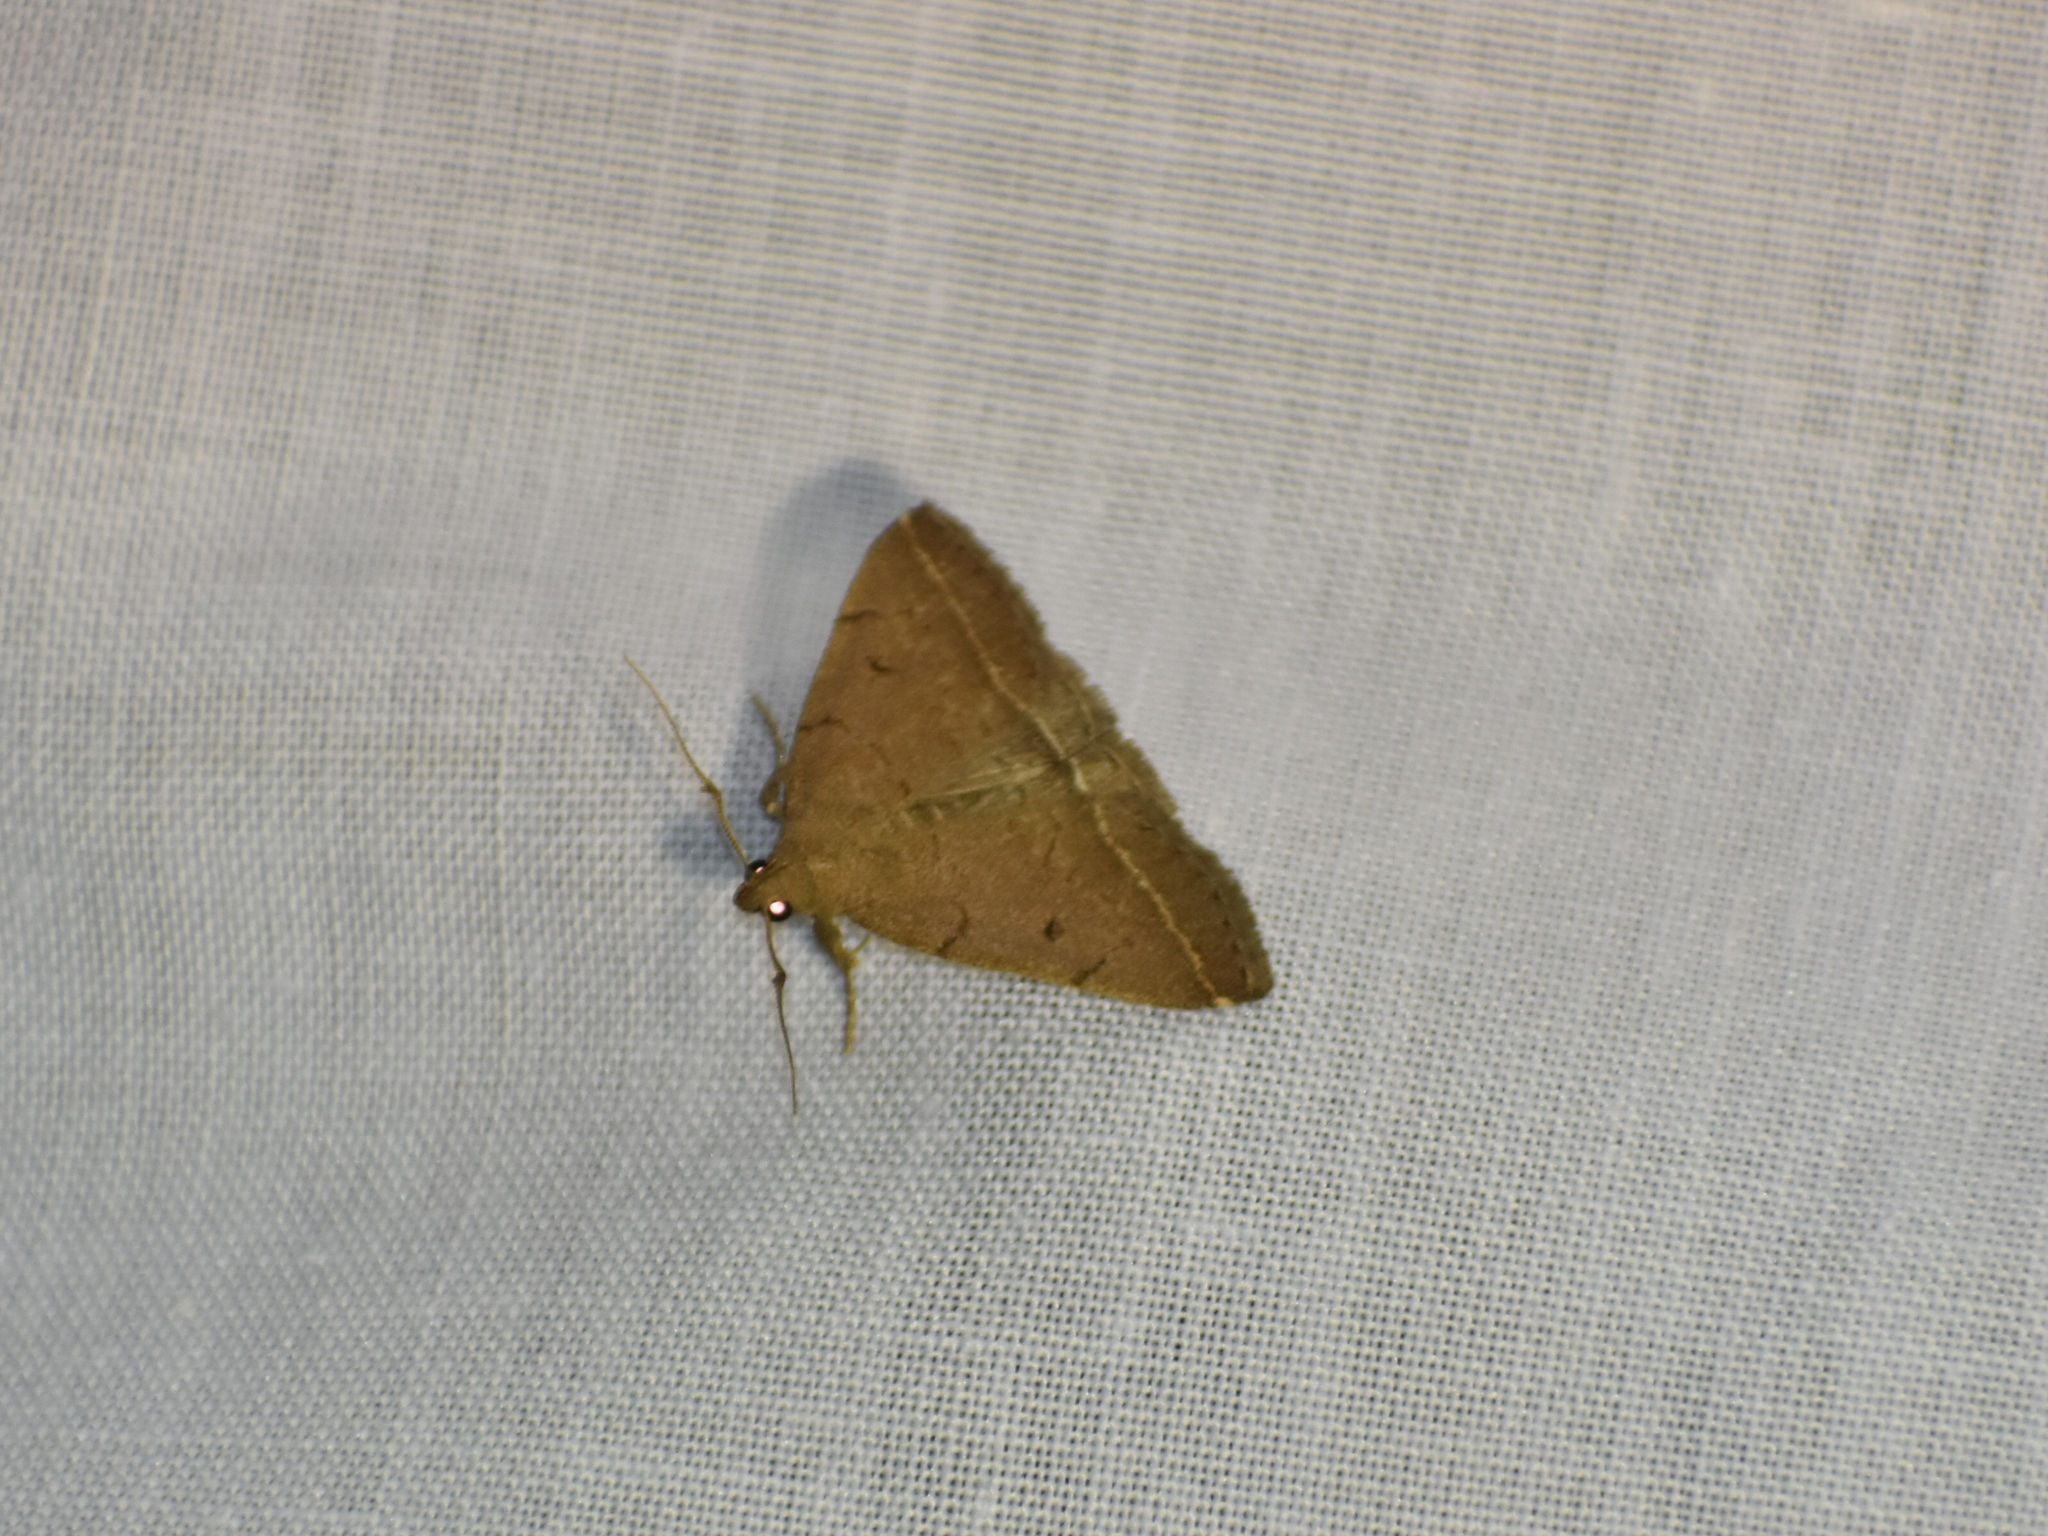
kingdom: Animalia
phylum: Arthropoda
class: Insecta
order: Lepidoptera
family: Erebidae
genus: Zanclognatha
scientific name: Zanclognatha protumnusalis
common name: Complex fan-foot
